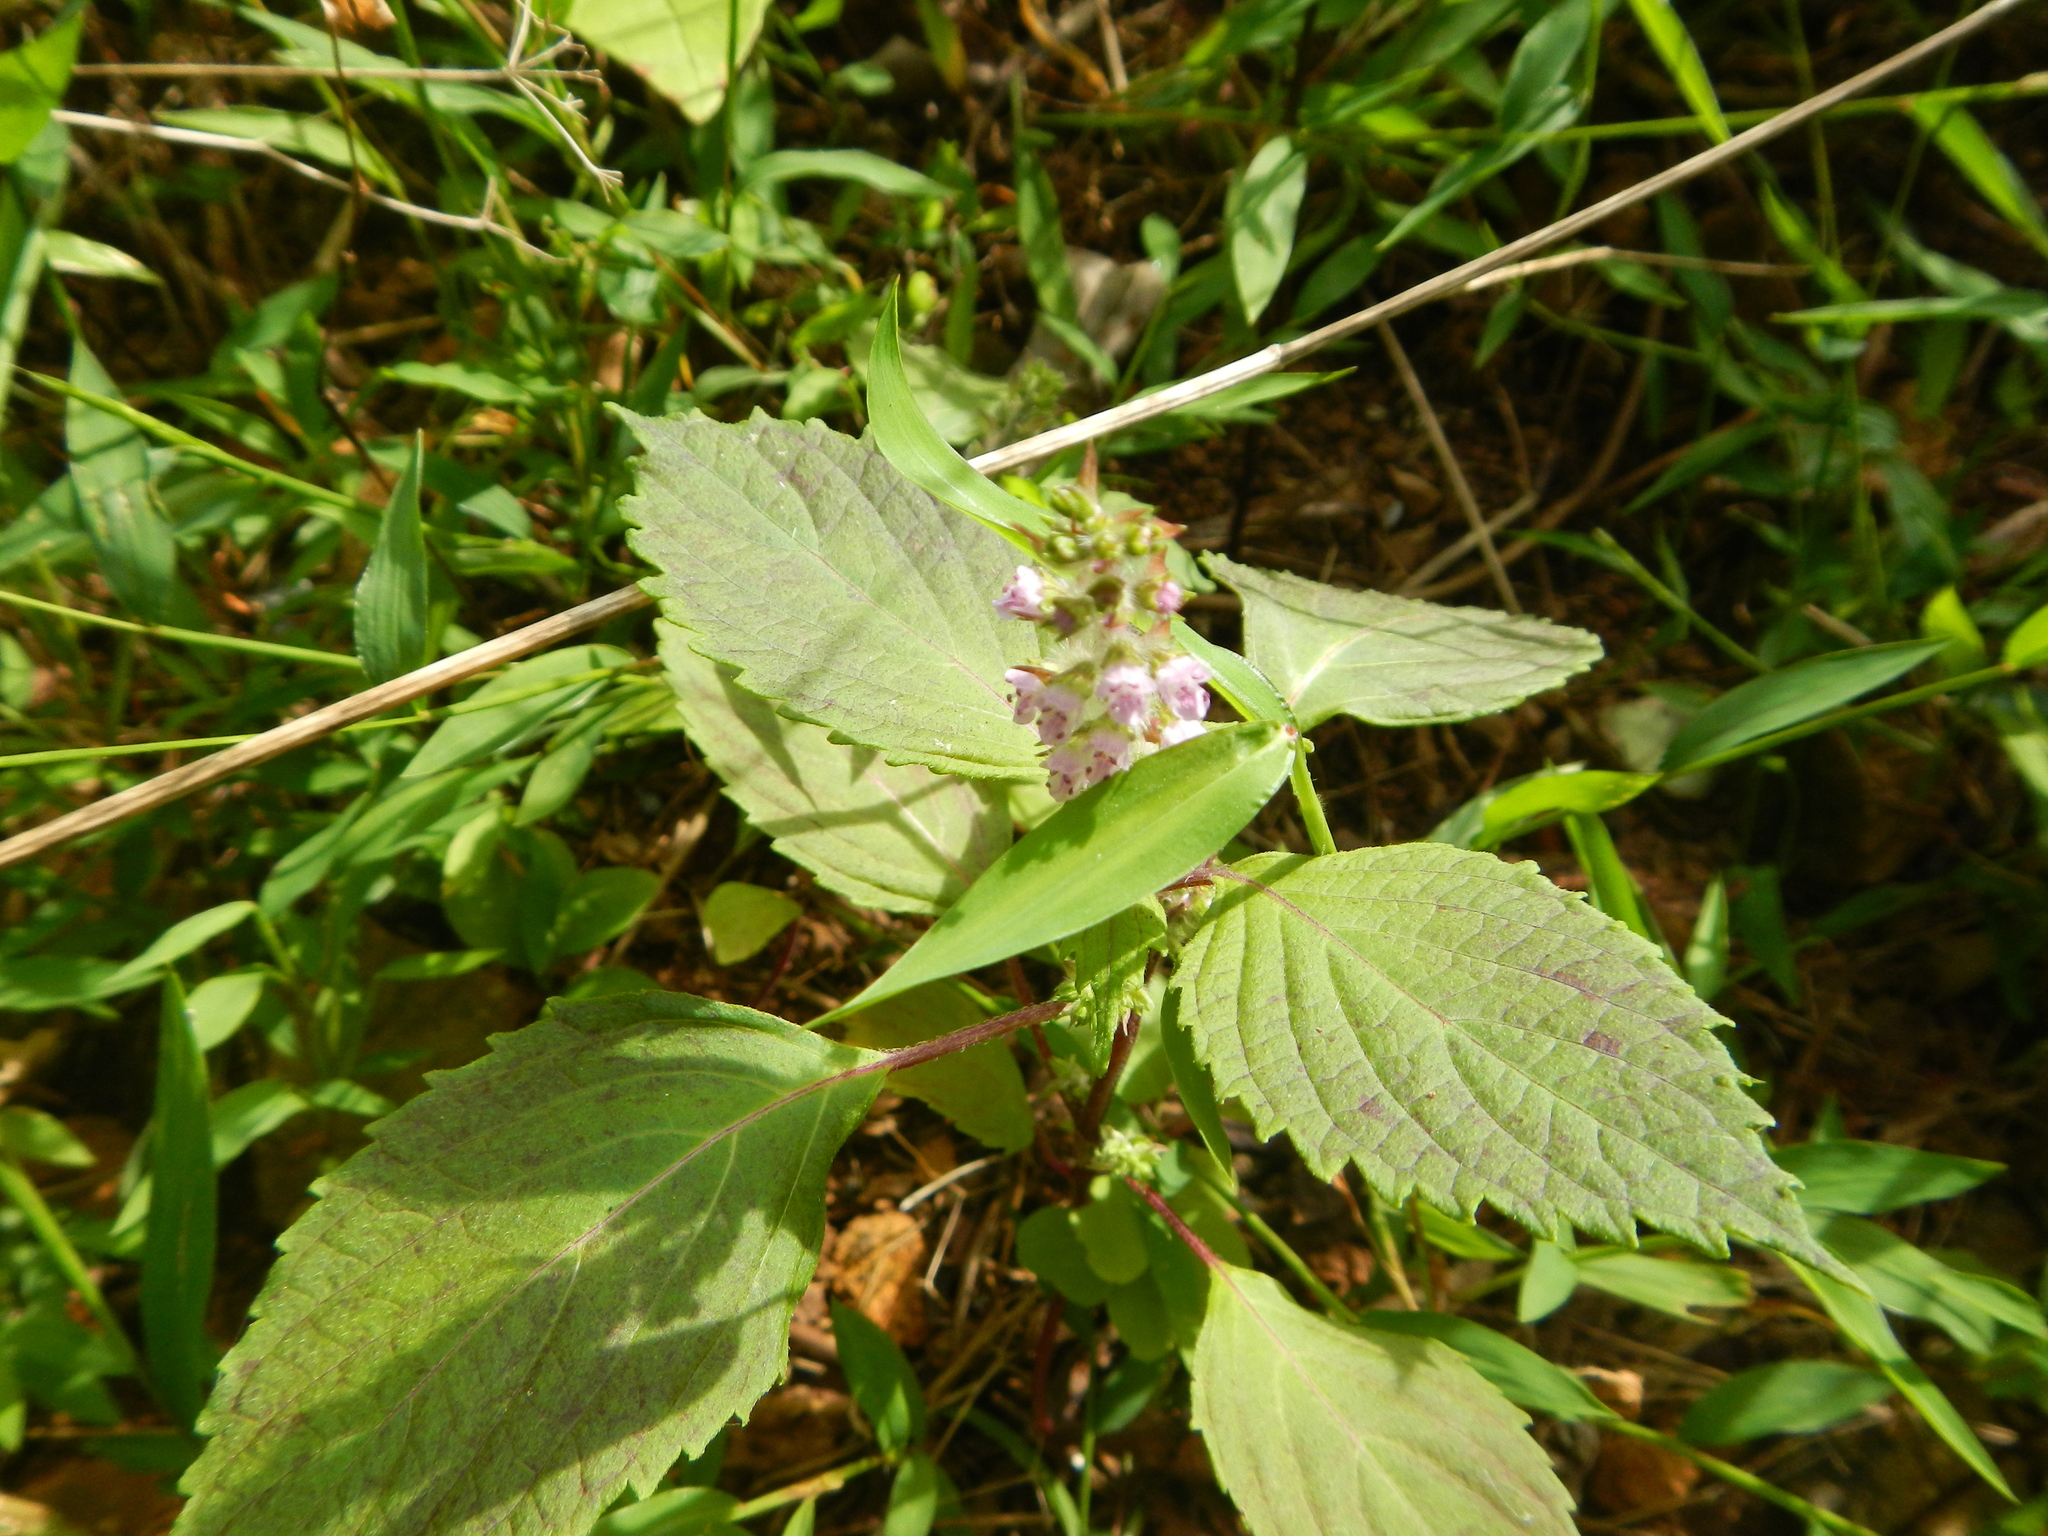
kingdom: Plantae
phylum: Tracheophyta
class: Magnoliopsida
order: Lamiales
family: Lamiaceae
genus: Perilla
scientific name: Perilla frutescens
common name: Perilla
